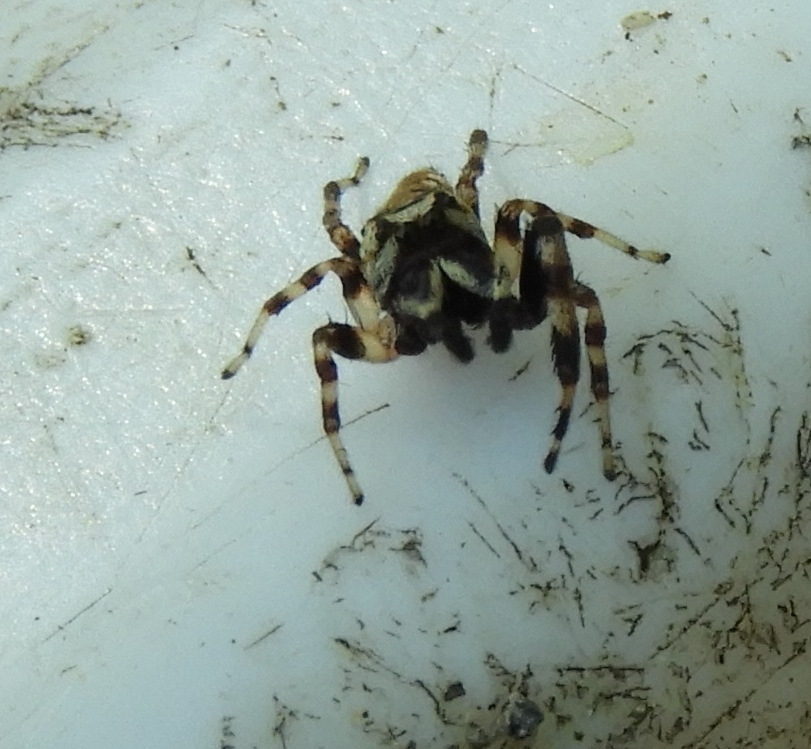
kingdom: Animalia
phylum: Arthropoda
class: Arachnida
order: Araneae
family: Salticidae
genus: Pelegrina
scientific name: Pelegrina
